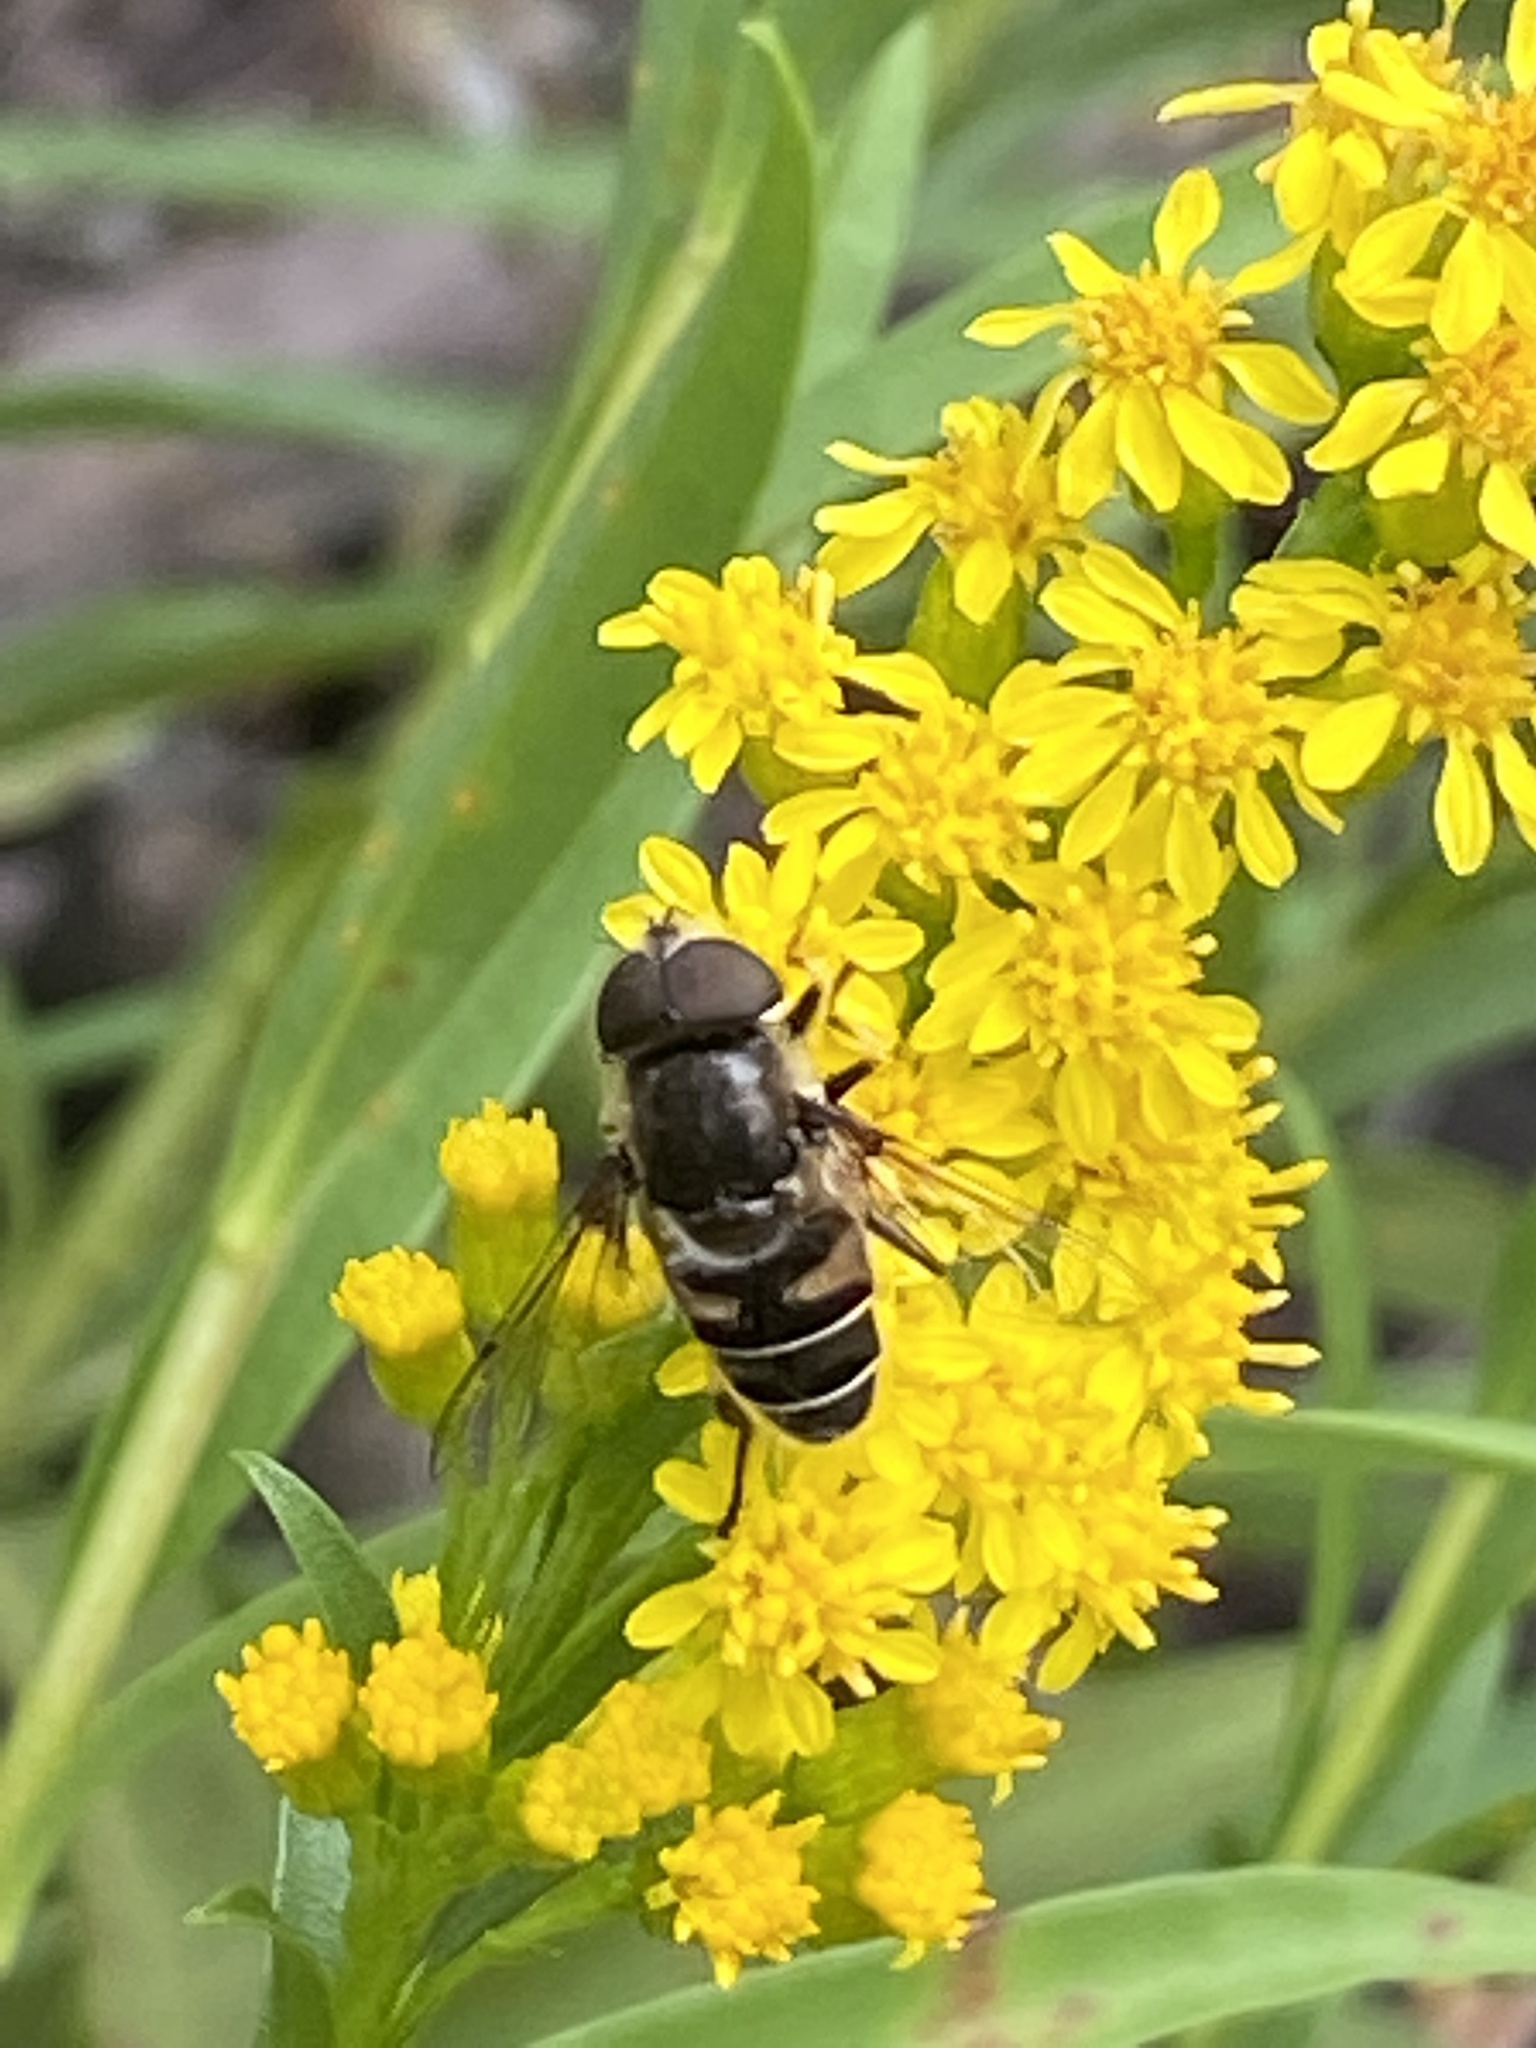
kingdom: Animalia
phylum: Arthropoda
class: Insecta
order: Diptera
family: Syrphidae
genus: Eristalis
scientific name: Eristalis dimidiata
